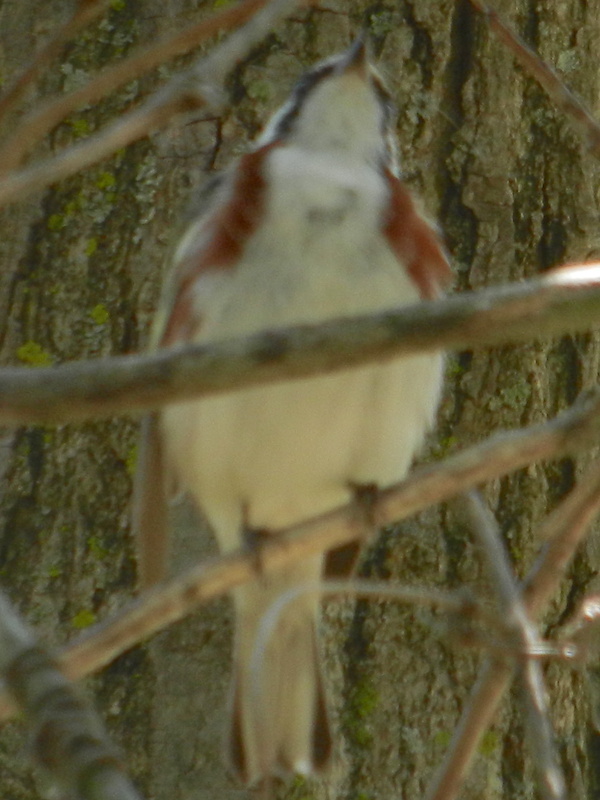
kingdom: Animalia
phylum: Chordata
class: Aves
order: Passeriformes
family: Parulidae
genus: Setophaga
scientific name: Setophaga pensylvanica
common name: Chestnut-sided warbler
